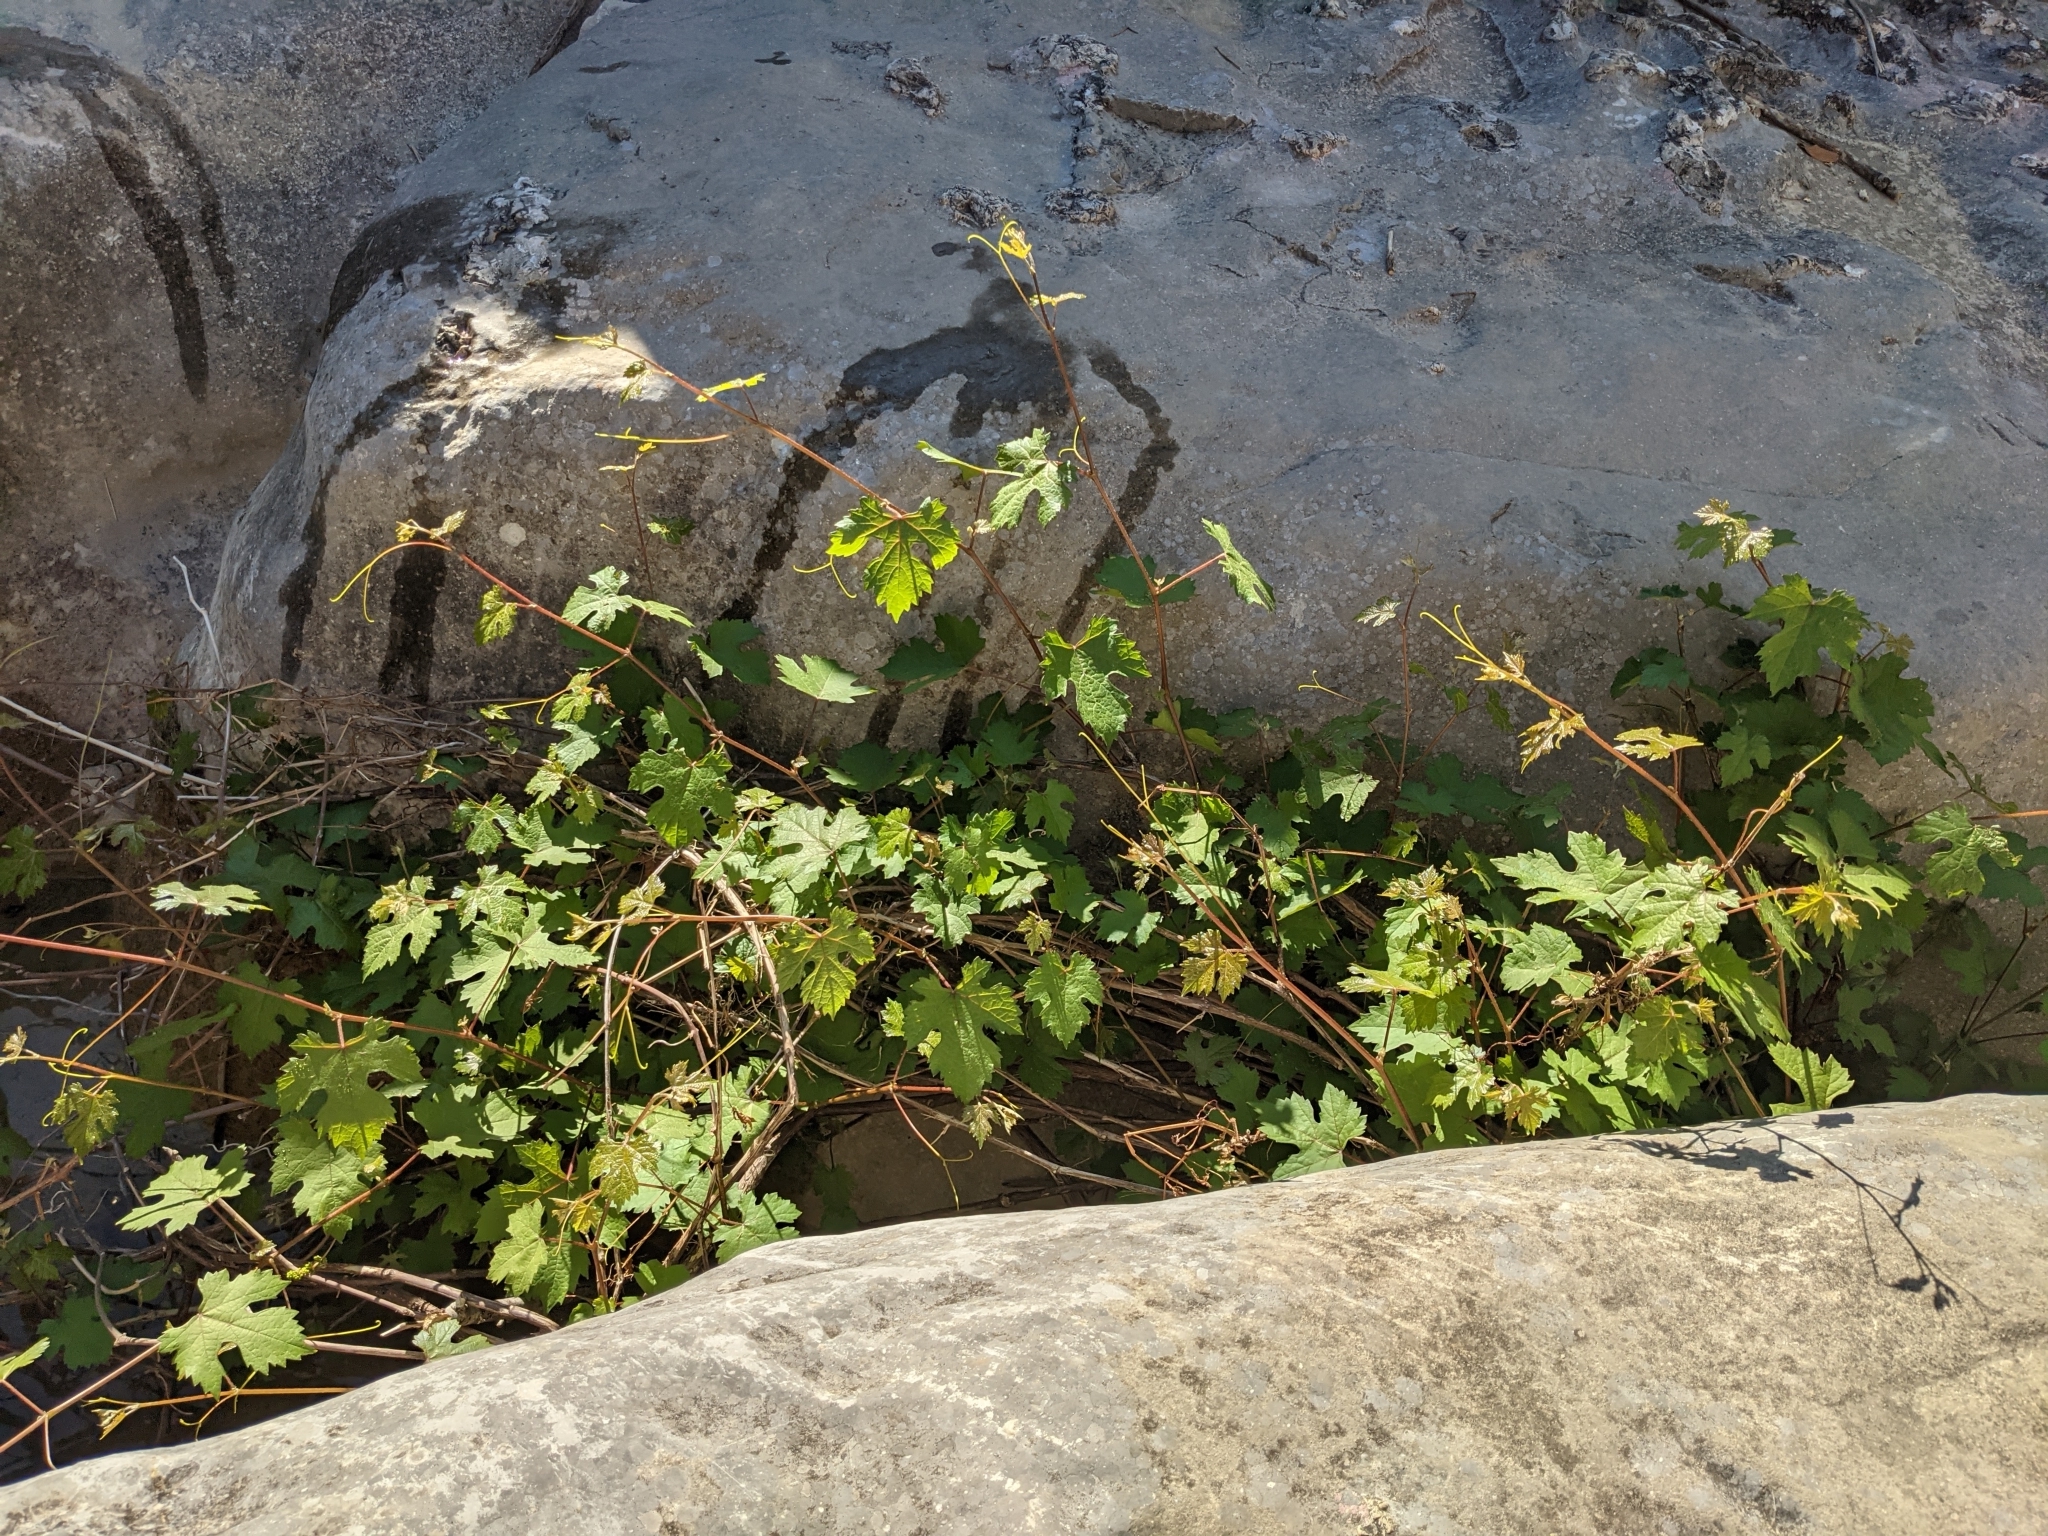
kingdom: Plantae
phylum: Tracheophyta
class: Magnoliopsida
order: Vitales
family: Vitaceae
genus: Vitis
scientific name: Vitis vinifera
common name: Grape-vine
